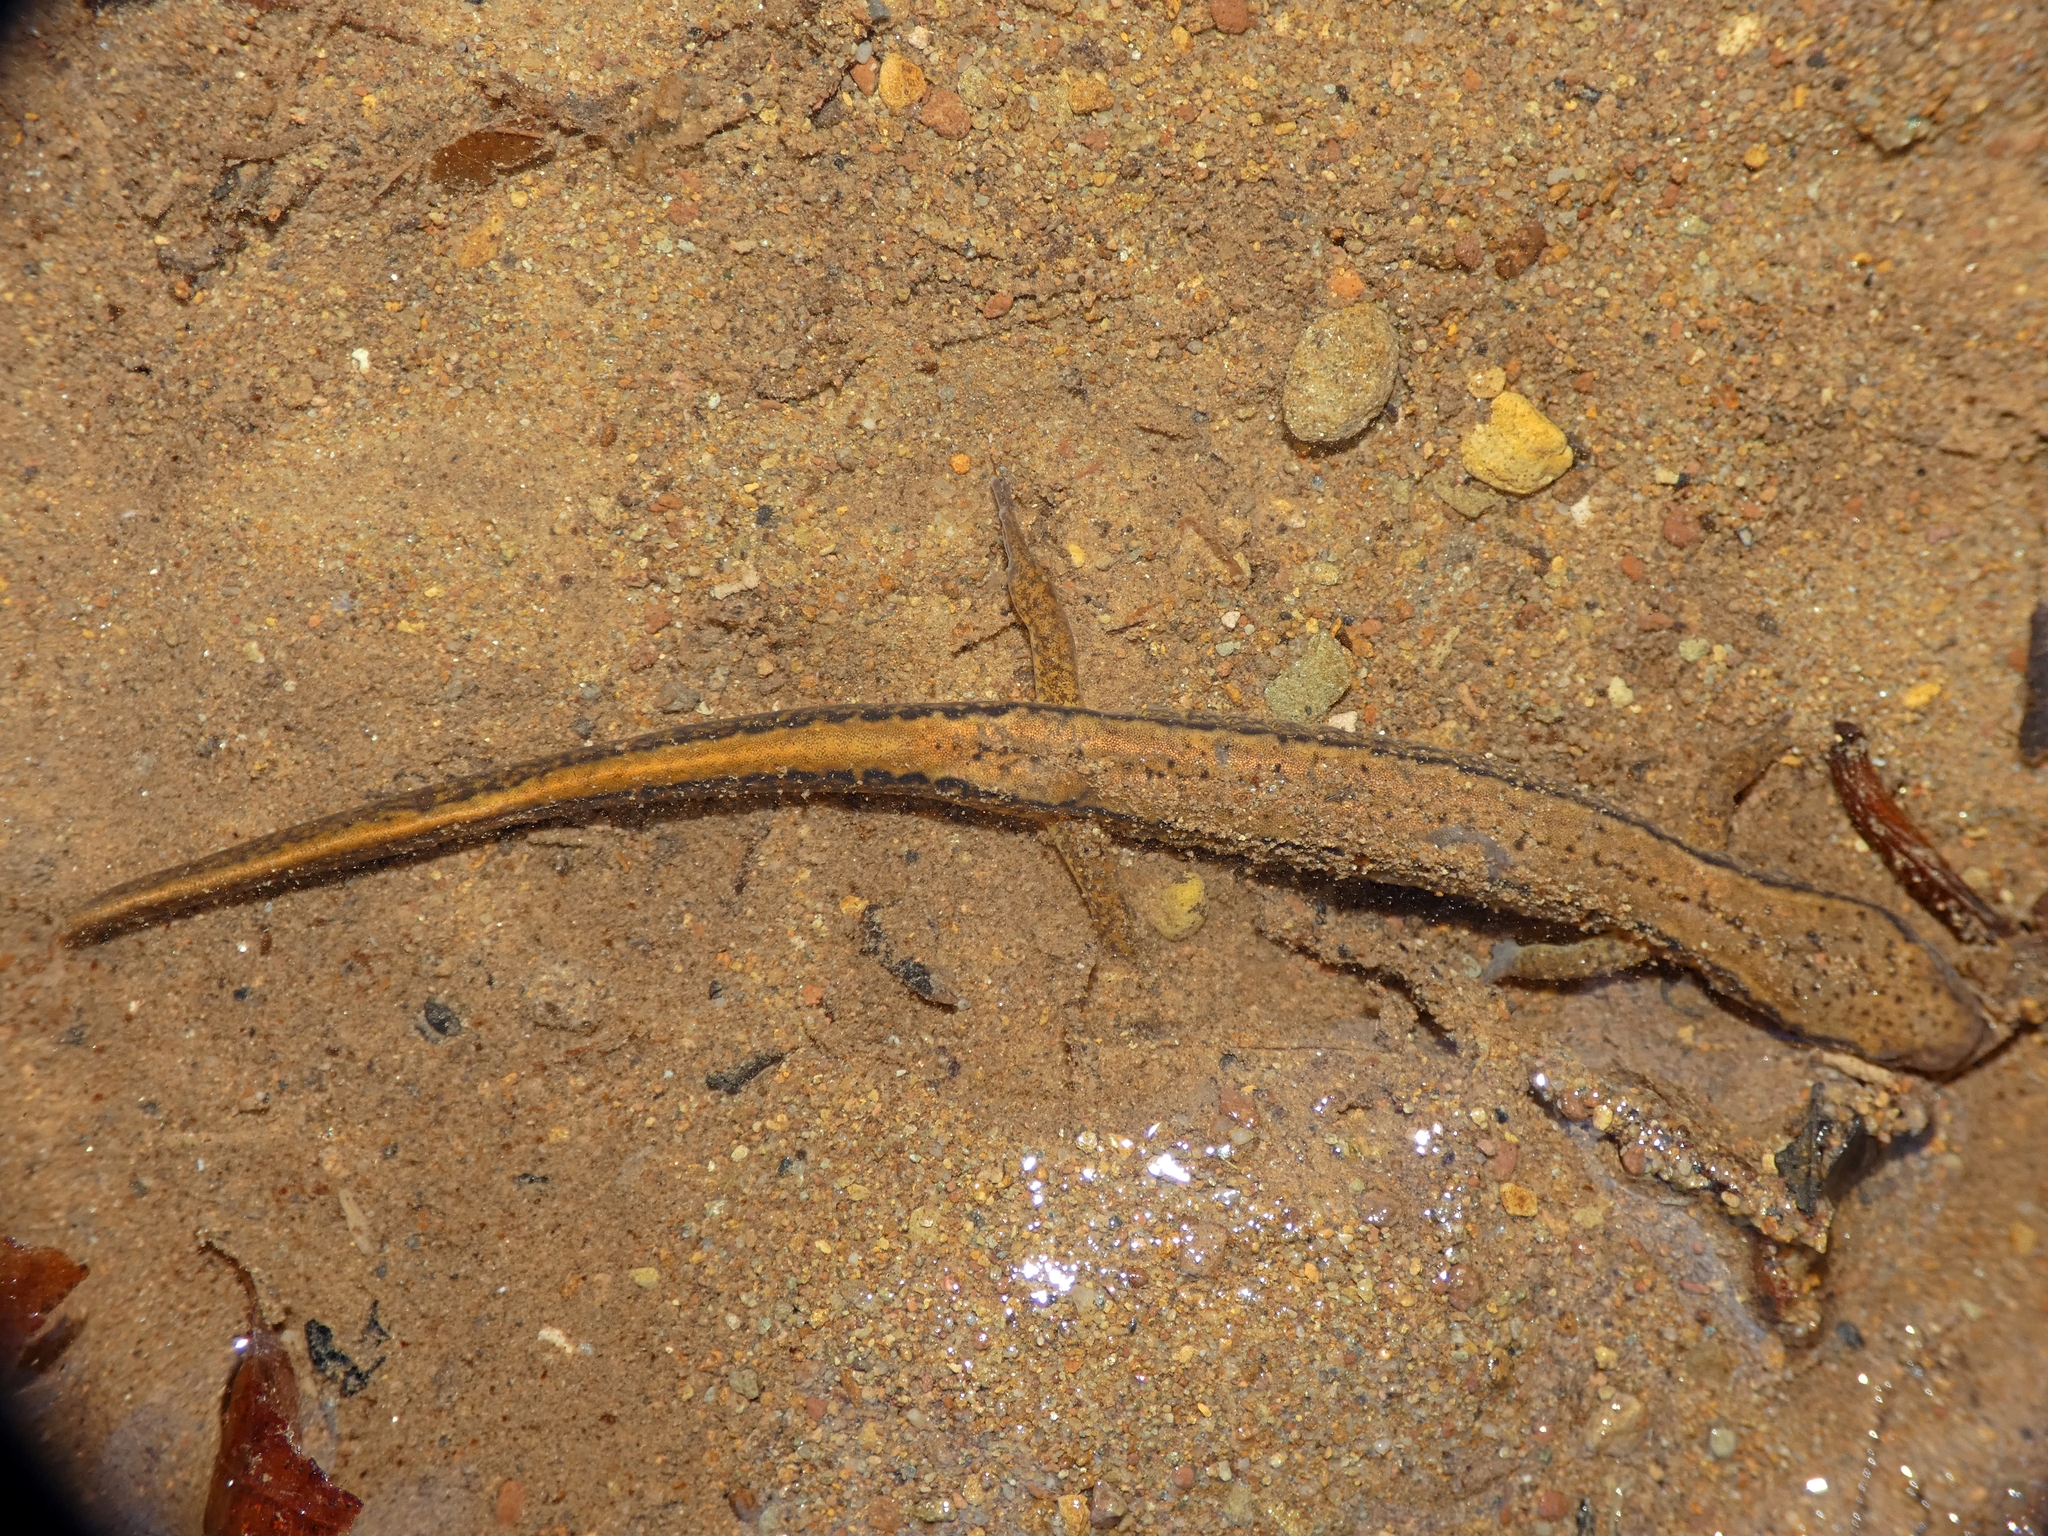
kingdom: Animalia
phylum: Chordata
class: Amphibia
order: Caudata
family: Plethodontidae
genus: Eurycea
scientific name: Eurycea bislineata
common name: Northern two-lined salamander
